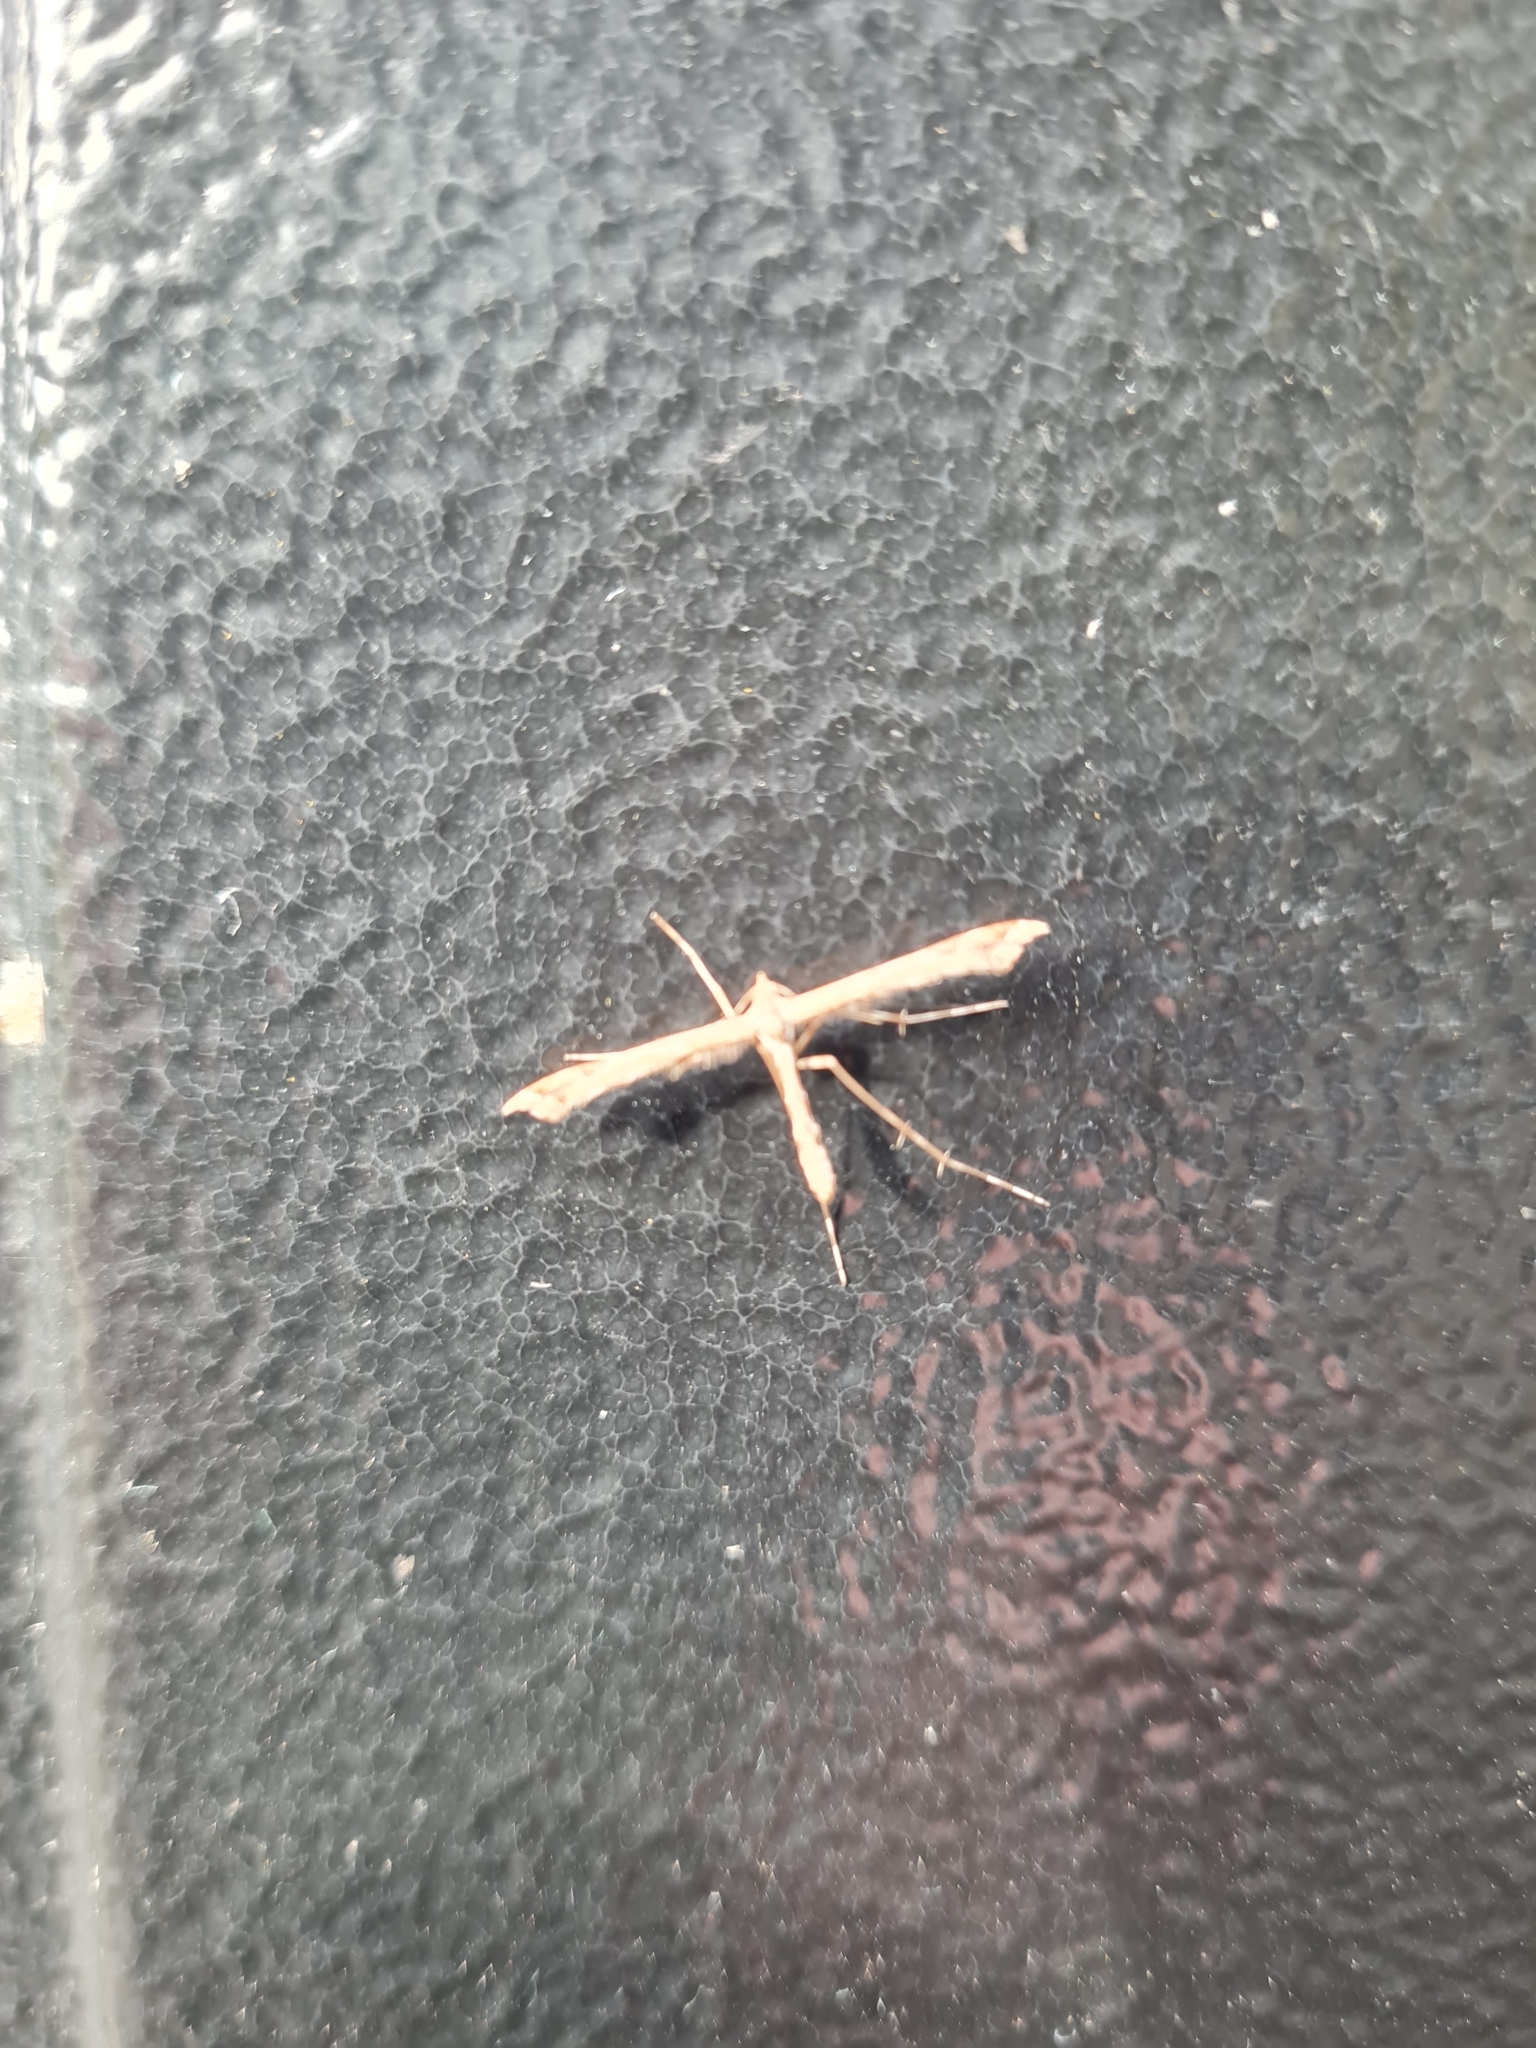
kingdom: Animalia
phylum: Arthropoda
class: Insecta
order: Lepidoptera
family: Pterophoridae
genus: Amblyptilia
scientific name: Amblyptilia acanthadactyla
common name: Beautiful plume
